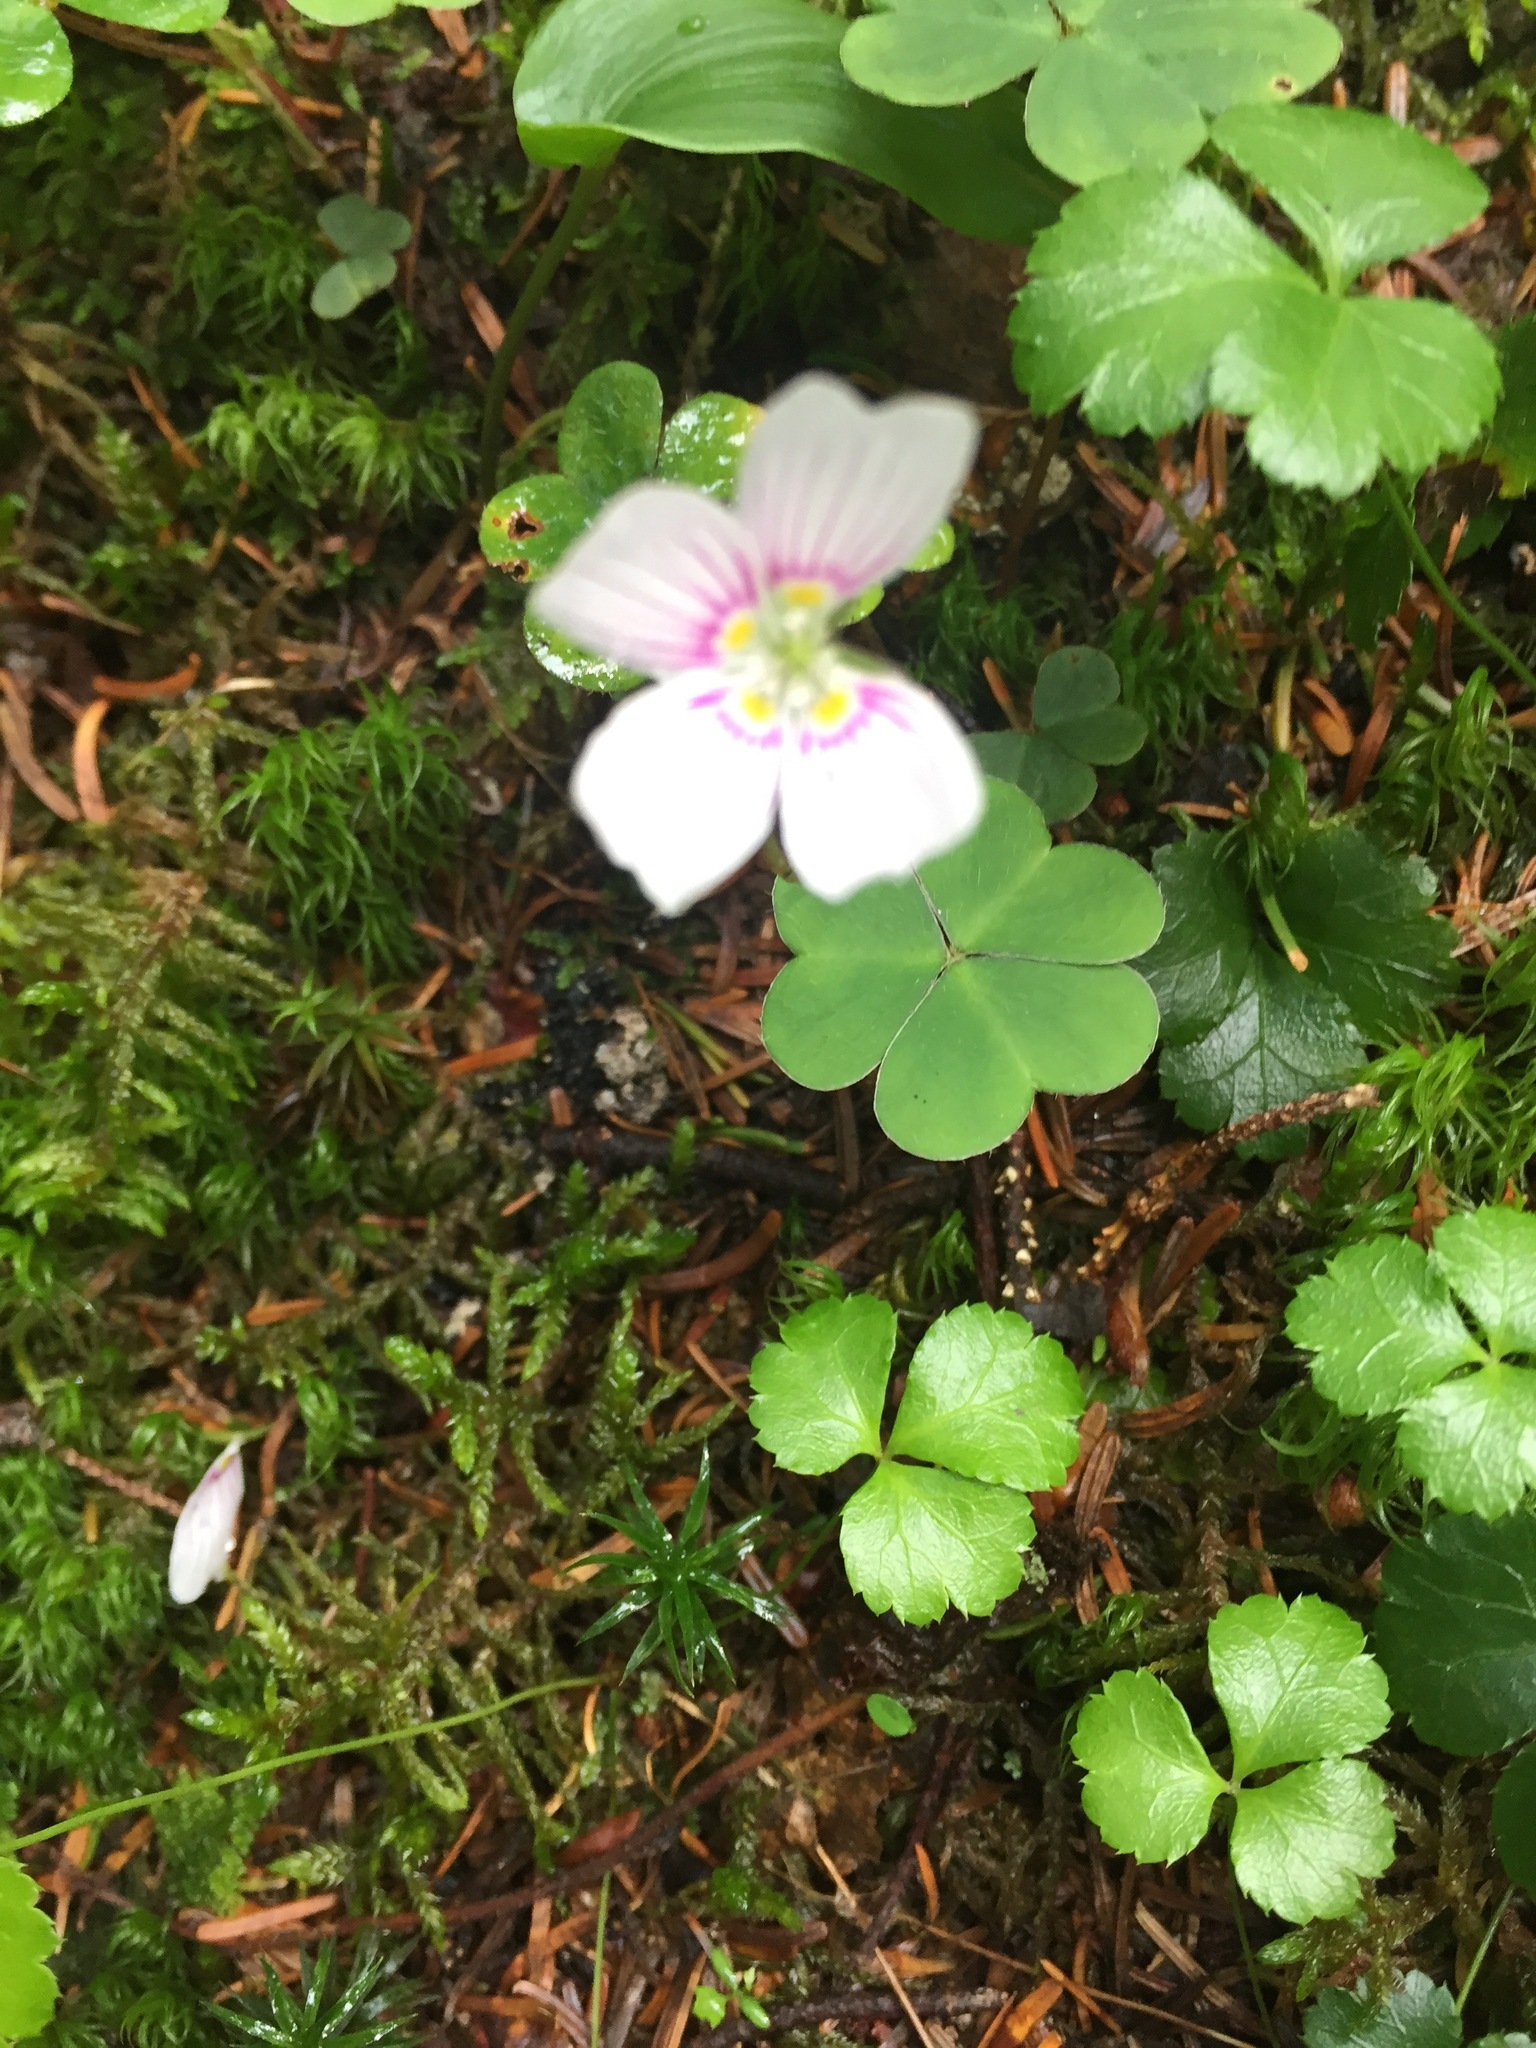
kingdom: Plantae
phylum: Tracheophyta
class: Magnoliopsida
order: Oxalidales
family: Oxalidaceae
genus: Oxalis
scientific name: Oxalis montana
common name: American wood-sorrel
